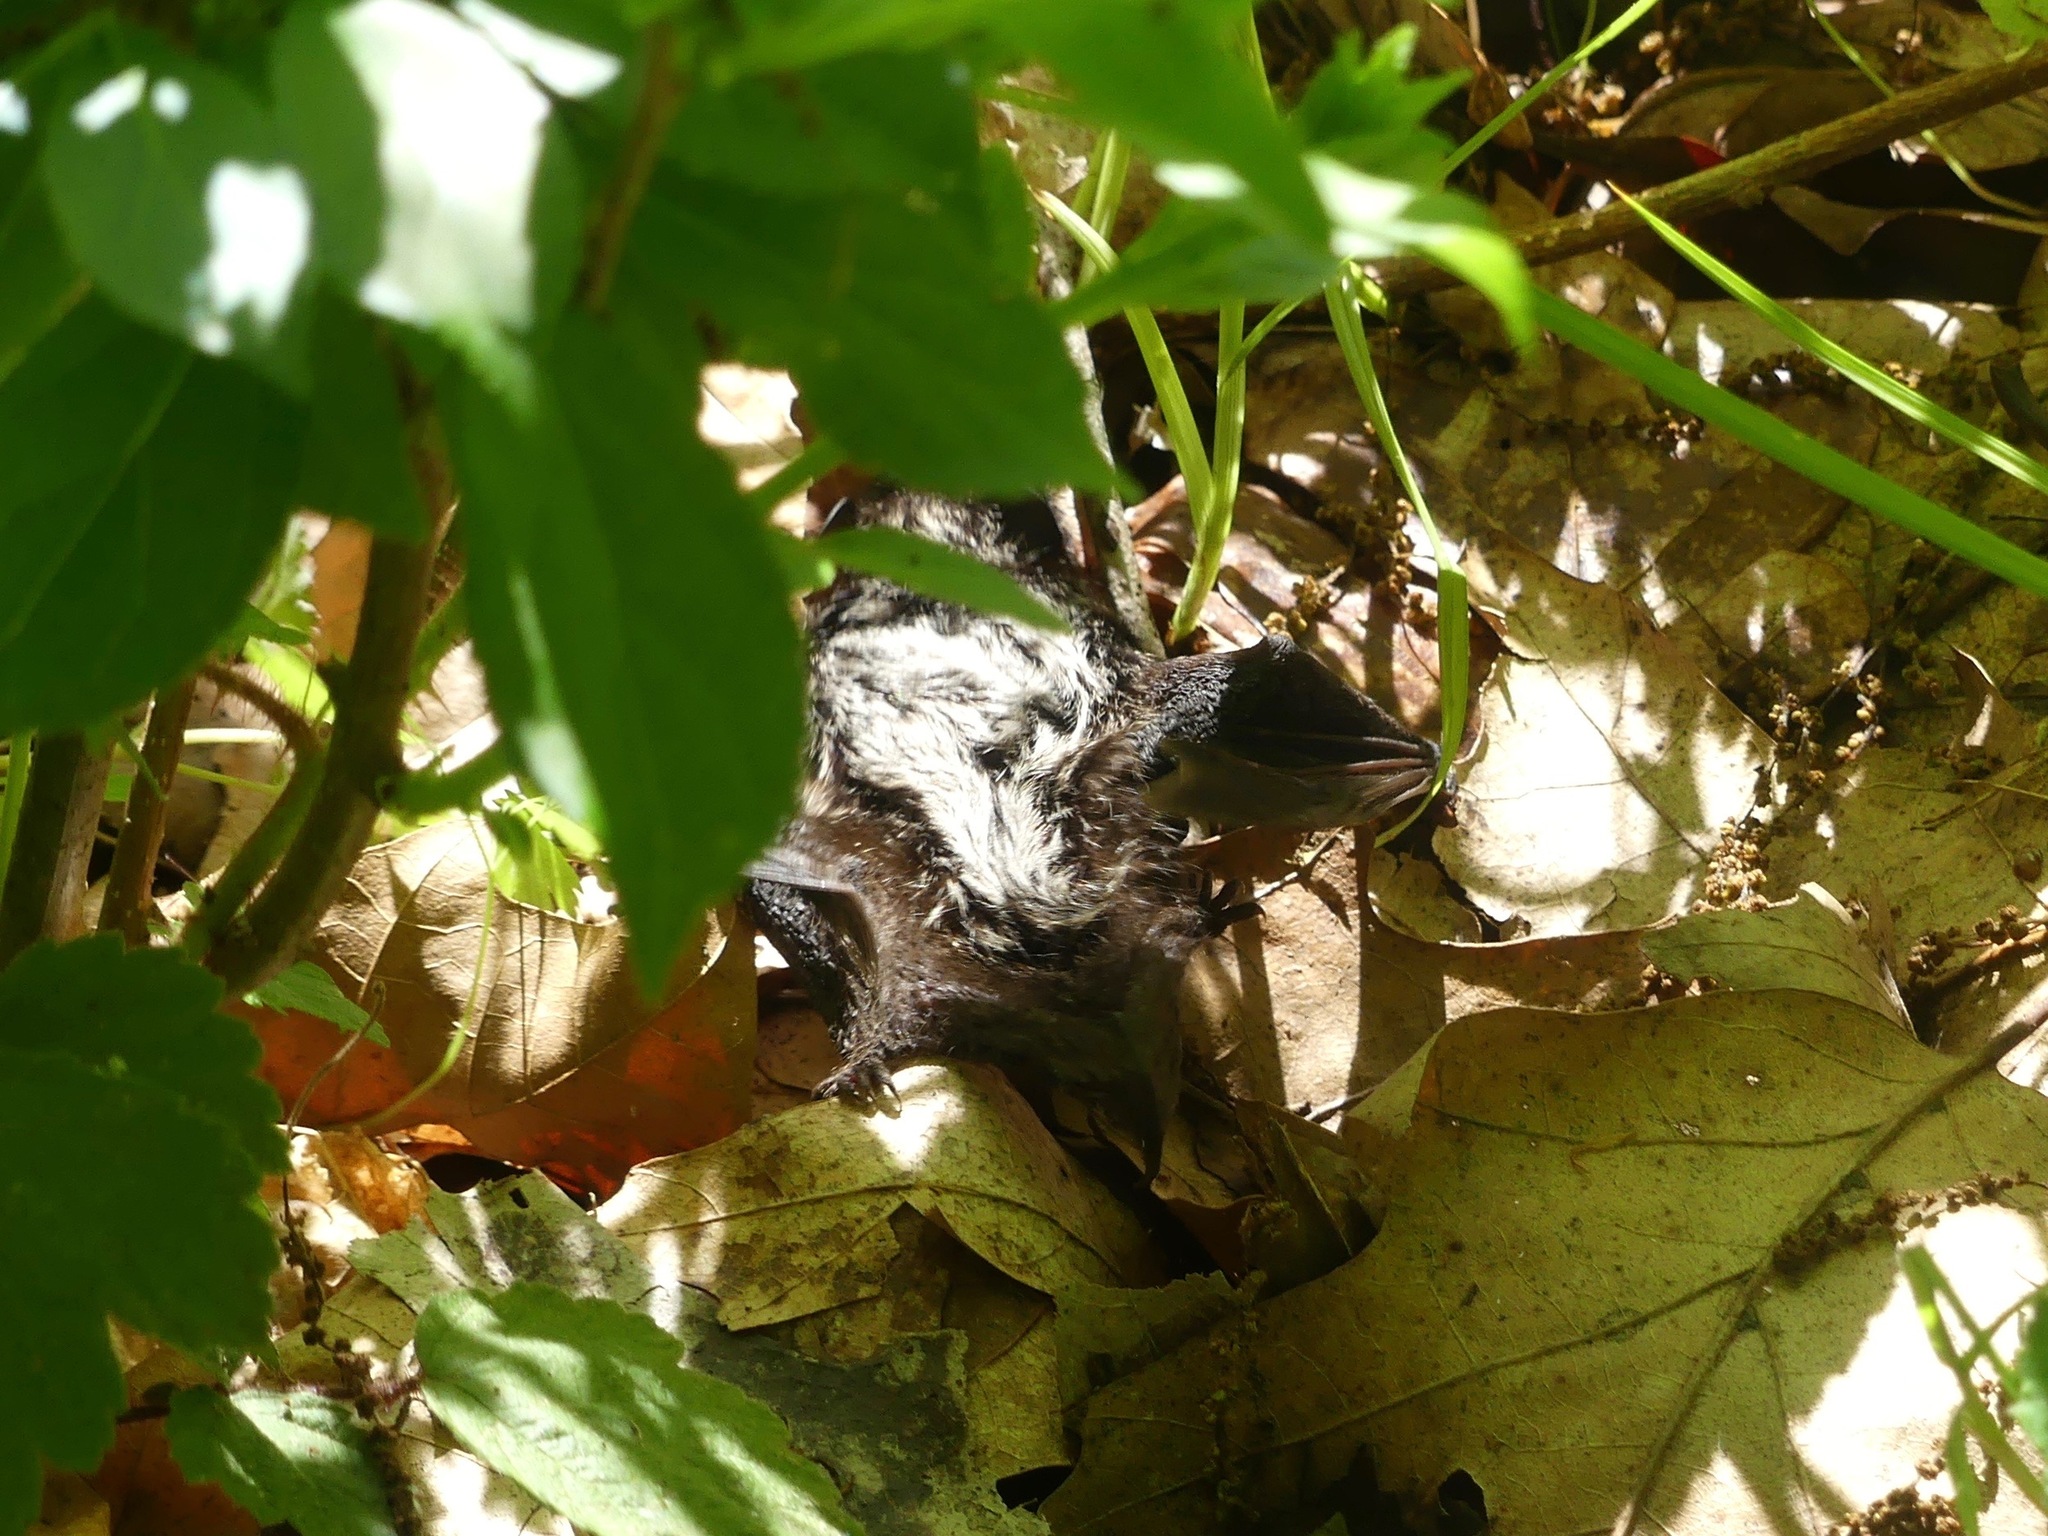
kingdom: Animalia
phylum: Chordata
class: Mammalia
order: Chiroptera
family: Vespertilionidae
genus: Lasionycteris
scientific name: Lasionycteris noctivagans
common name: Silver-haired bat
